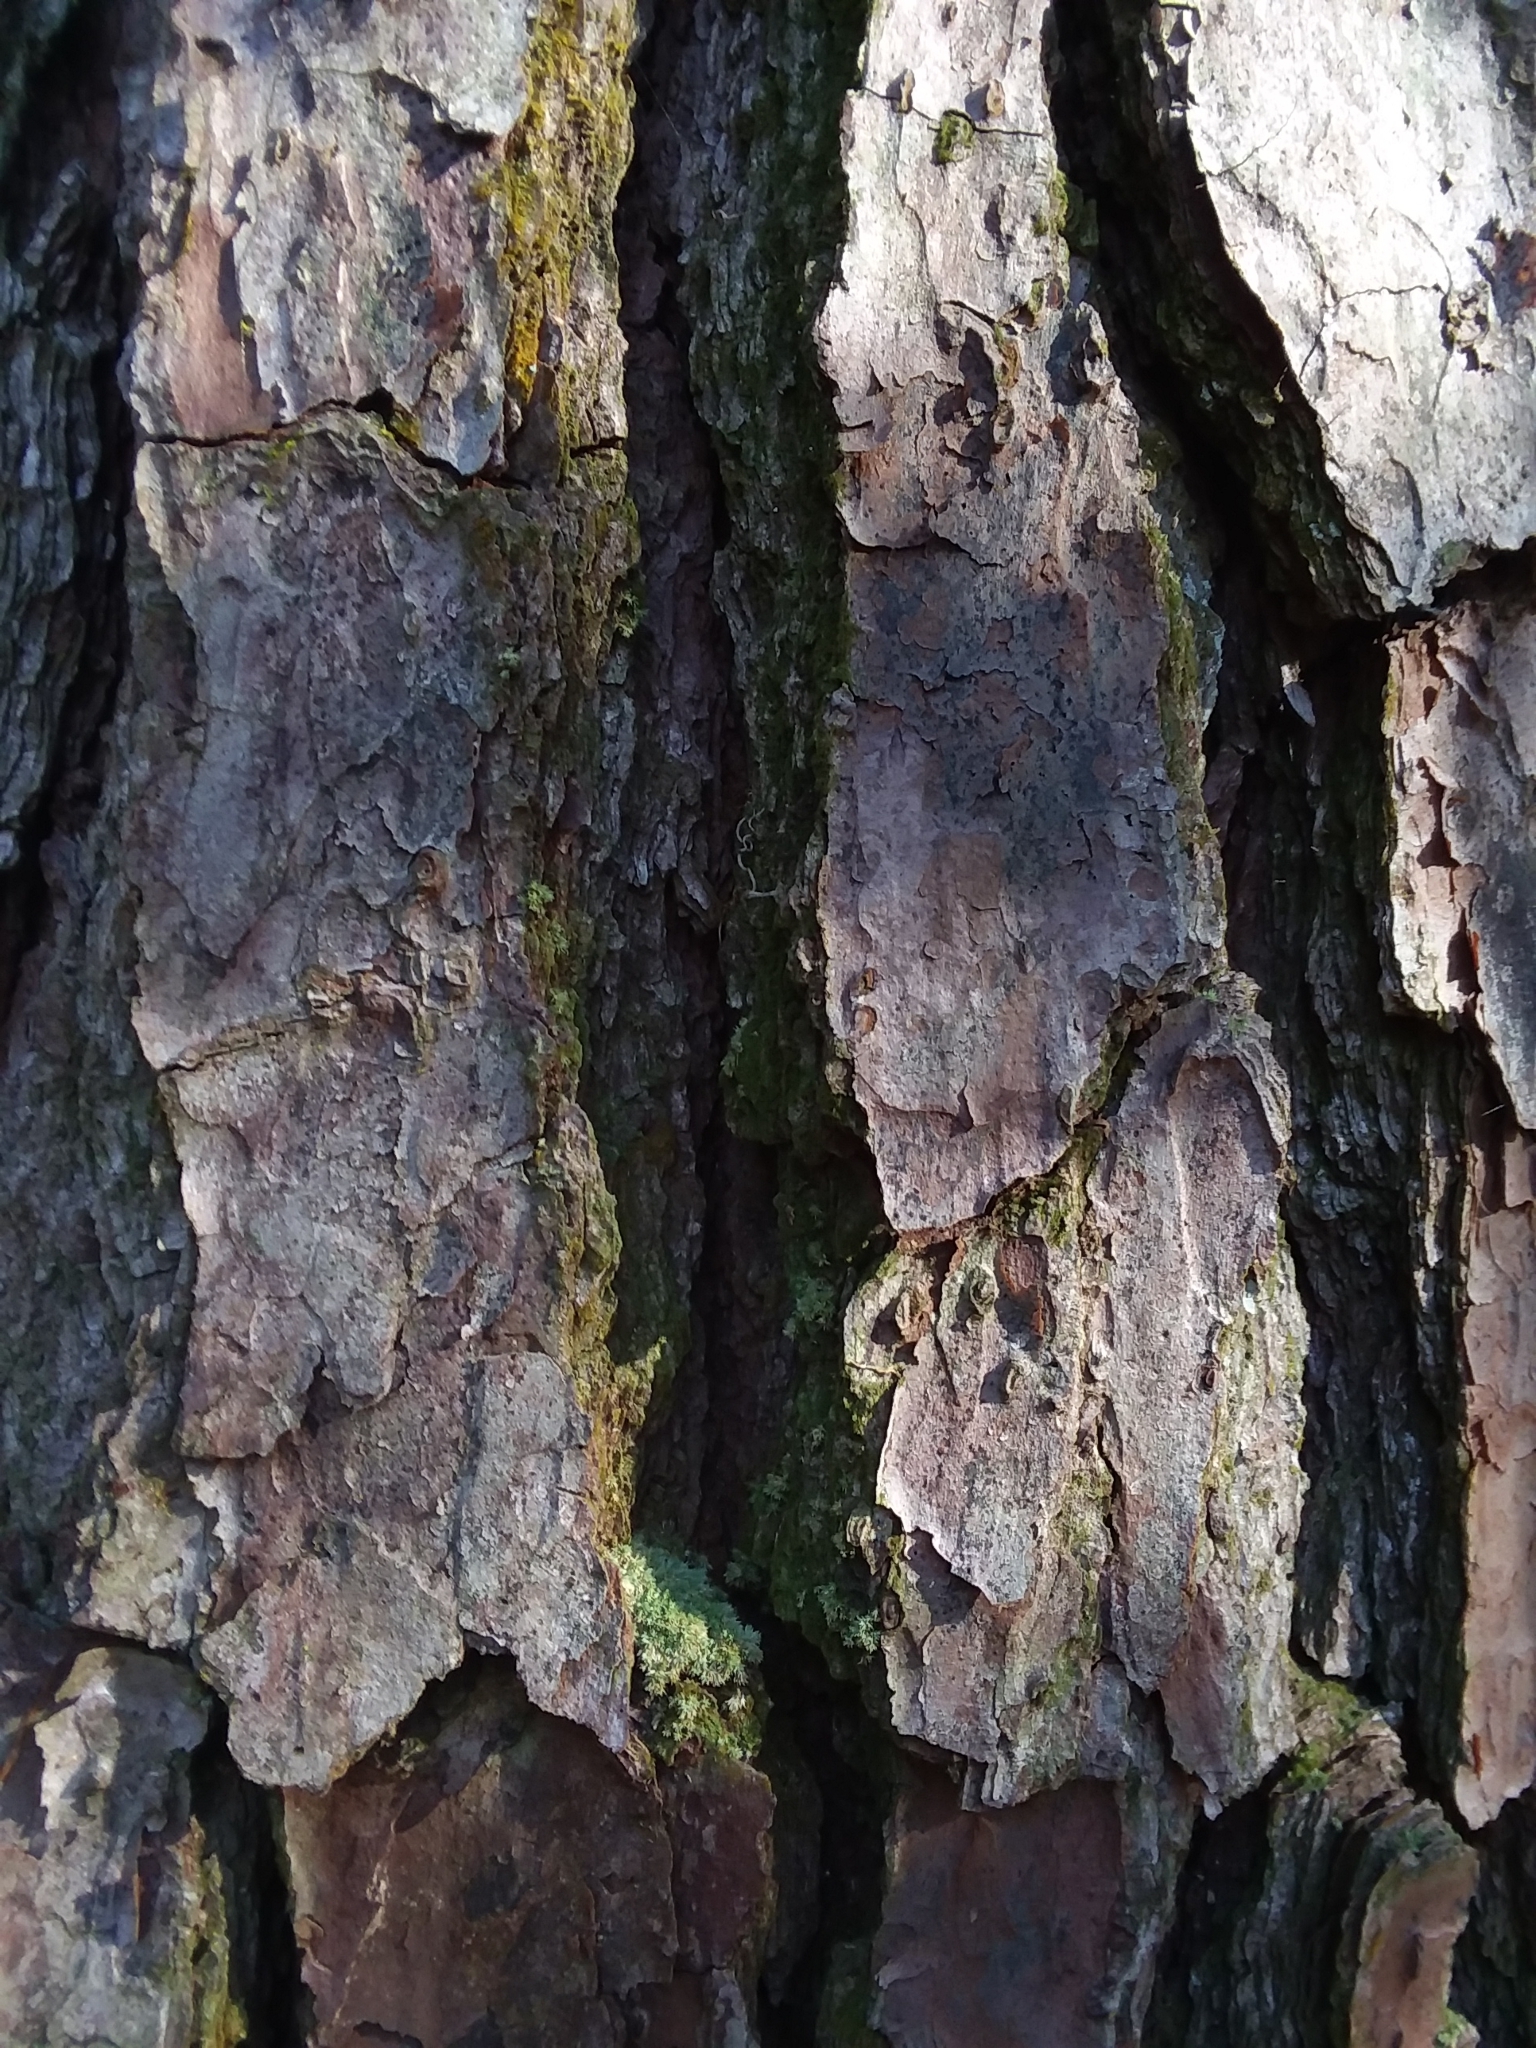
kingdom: Plantae
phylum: Tracheophyta
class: Pinopsida
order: Pinales
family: Pinaceae
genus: Pinus
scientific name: Pinus taeda
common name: Loblolly pine
